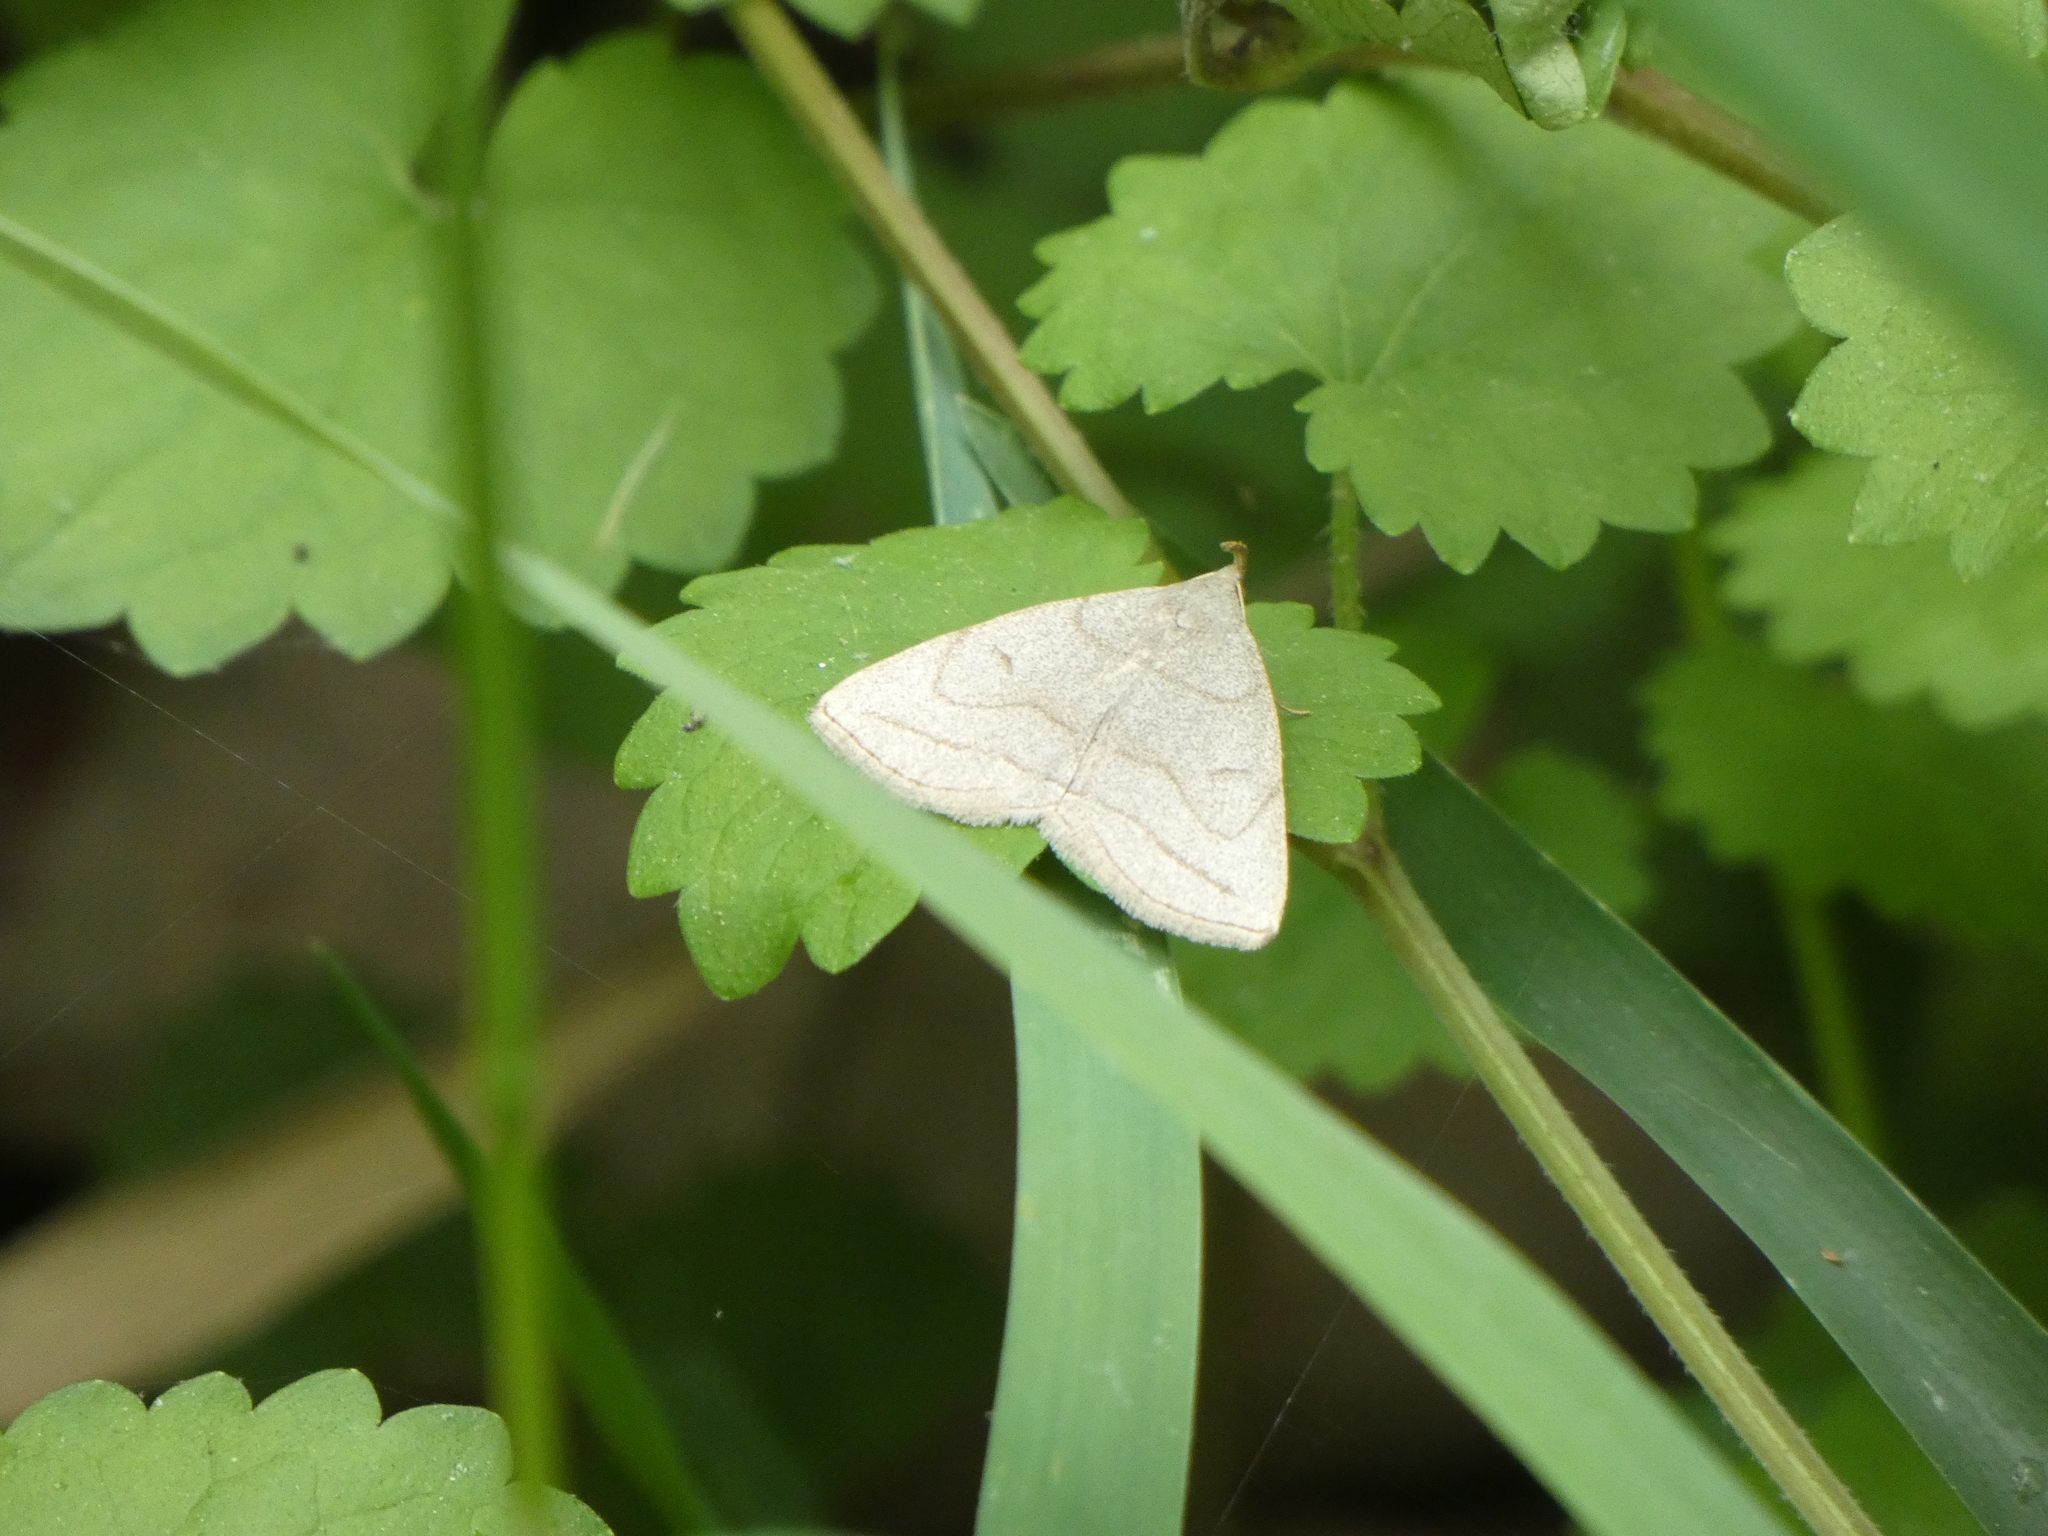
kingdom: Animalia
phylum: Arthropoda
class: Insecta
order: Lepidoptera
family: Erebidae
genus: Zanclognatha
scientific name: Zanclognatha pedipilalis
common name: Grayish fan-foot
